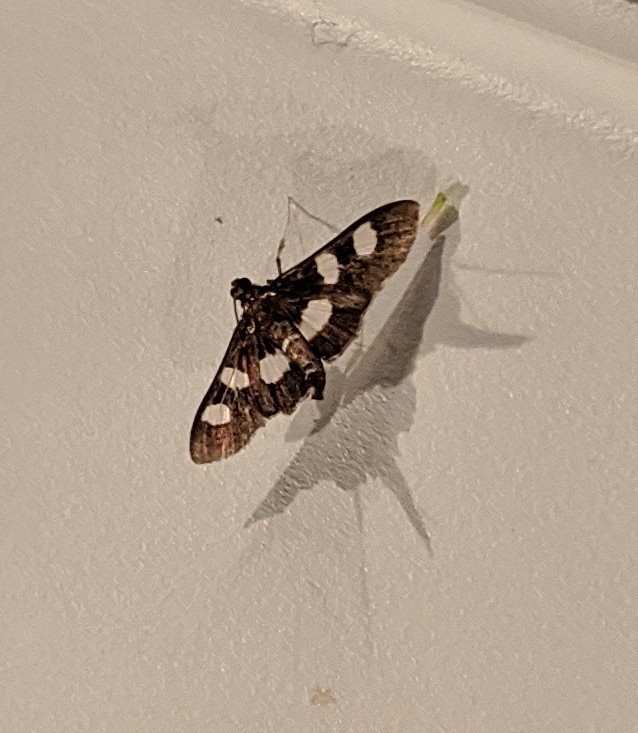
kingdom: Animalia
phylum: Arthropoda
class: Insecta
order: Lepidoptera
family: Crambidae
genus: Desmia
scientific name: Desmia
